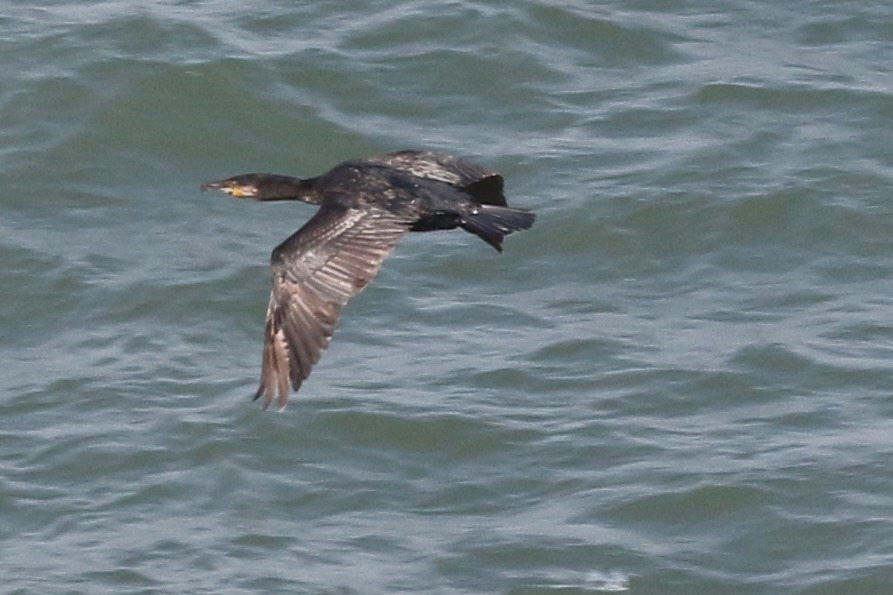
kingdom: Animalia
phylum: Chordata
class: Aves
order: Suliformes
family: Phalacrocoracidae
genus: Phalacrocorax
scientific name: Phalacrocorax carbo
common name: Great cormorant
